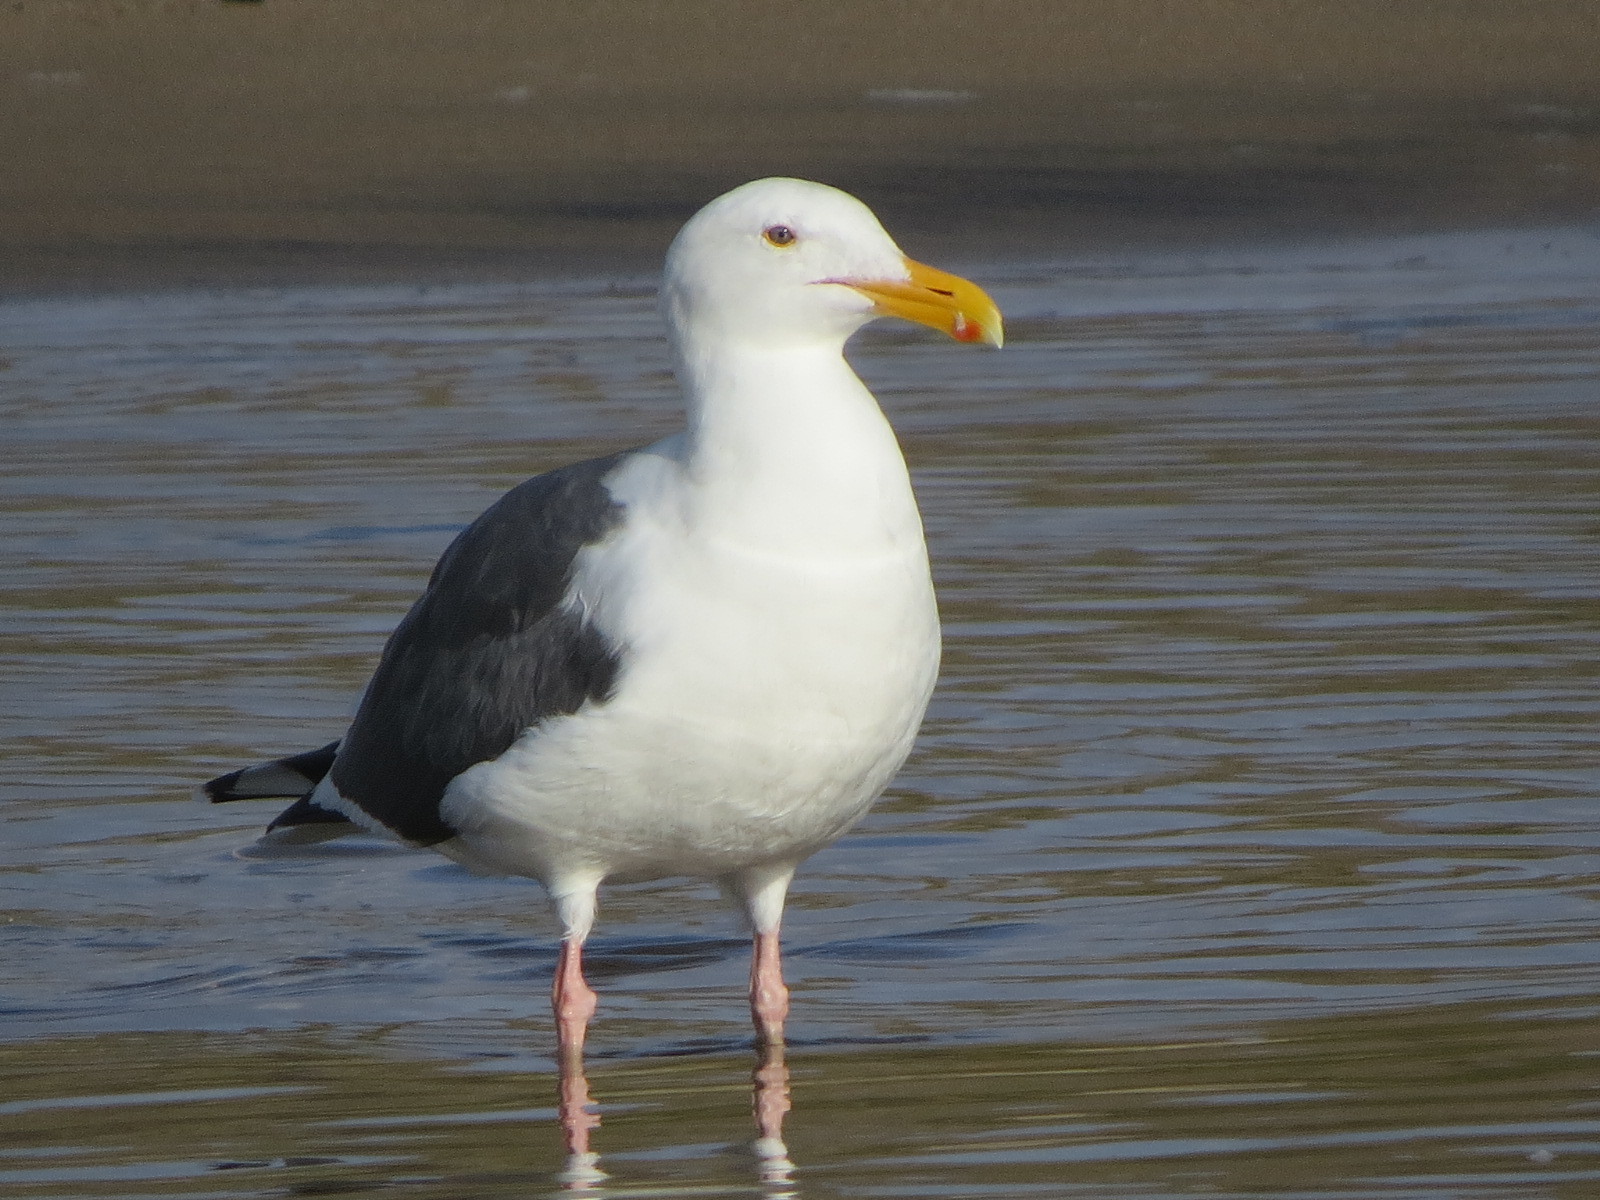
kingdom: Animalia
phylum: Chordata
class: Aves
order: Charadriiformes
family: Laridae
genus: Larus
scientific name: Larus occidentalis
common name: Western gull
